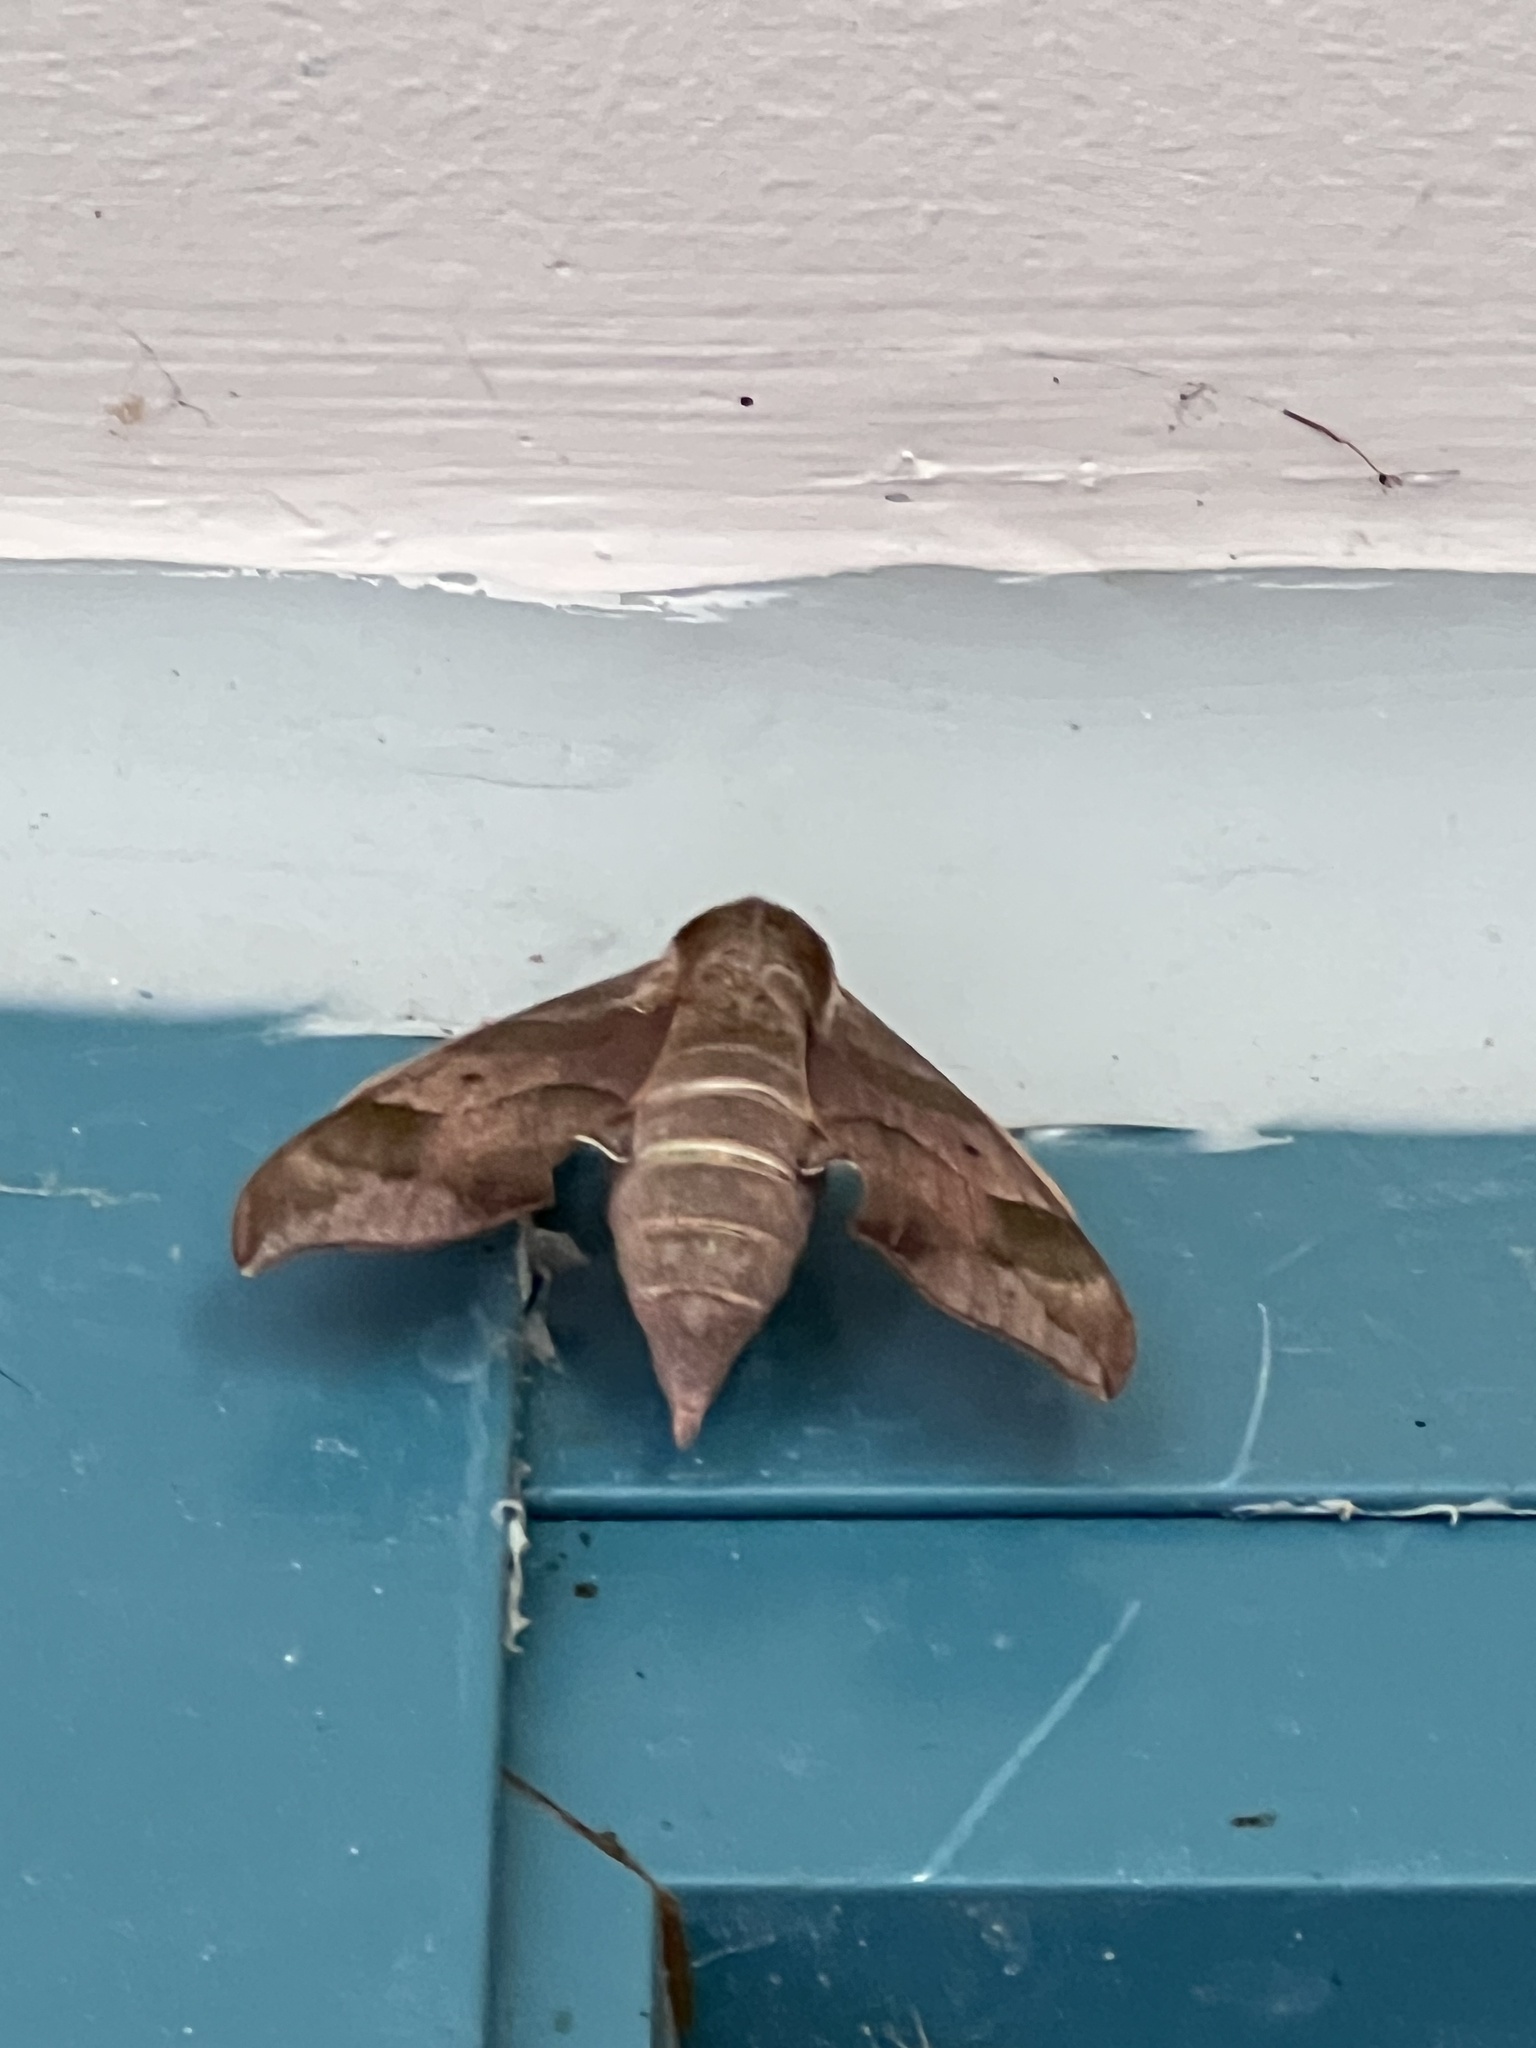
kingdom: Animalia
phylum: Arthropoda
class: Insecta
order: Lepidoptera
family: Sphingidae
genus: Darapsa
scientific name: Darapsa myron
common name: Hog sphinx
